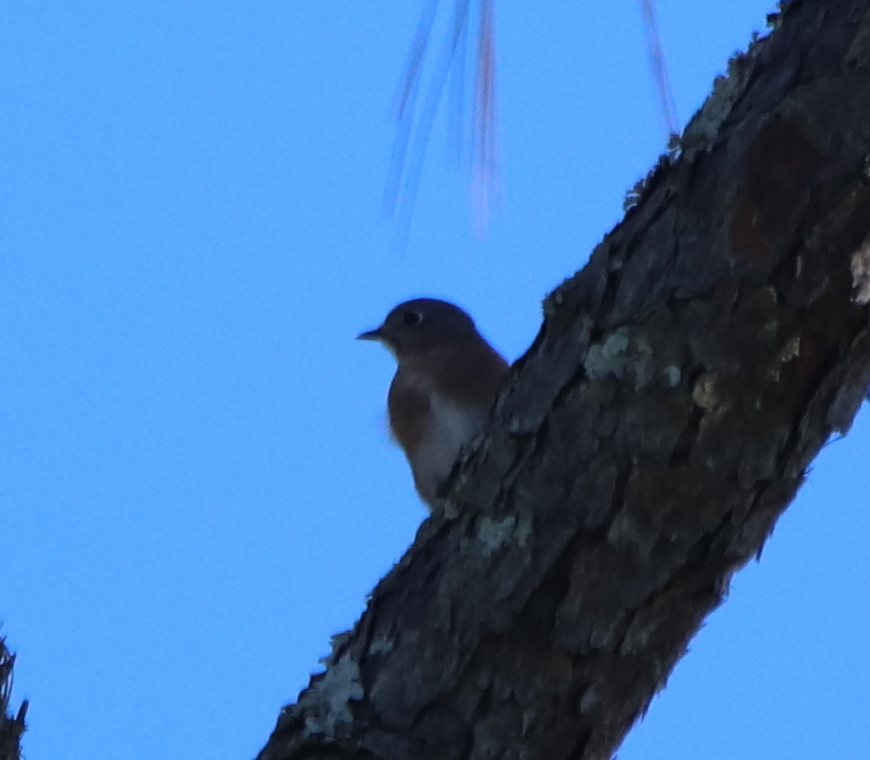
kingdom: Animalia
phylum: Chordata
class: Aves
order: Passeriformes
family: Turdidae
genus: Sialia
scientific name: Sialia sialis
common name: Eastern bluebird
